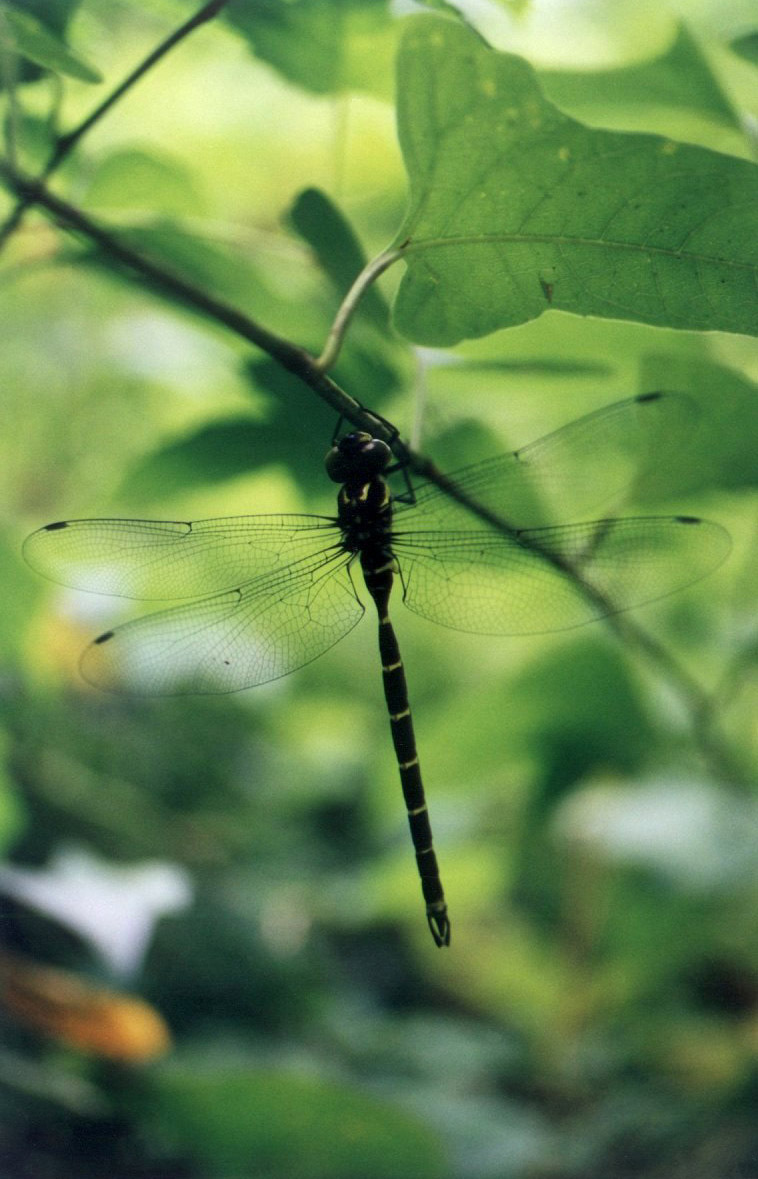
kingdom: Animalia
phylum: Arthropoda
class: Insecta
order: Odonata
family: Aeshnidae
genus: Aeschnophlebia
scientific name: Aeschnophlebia
